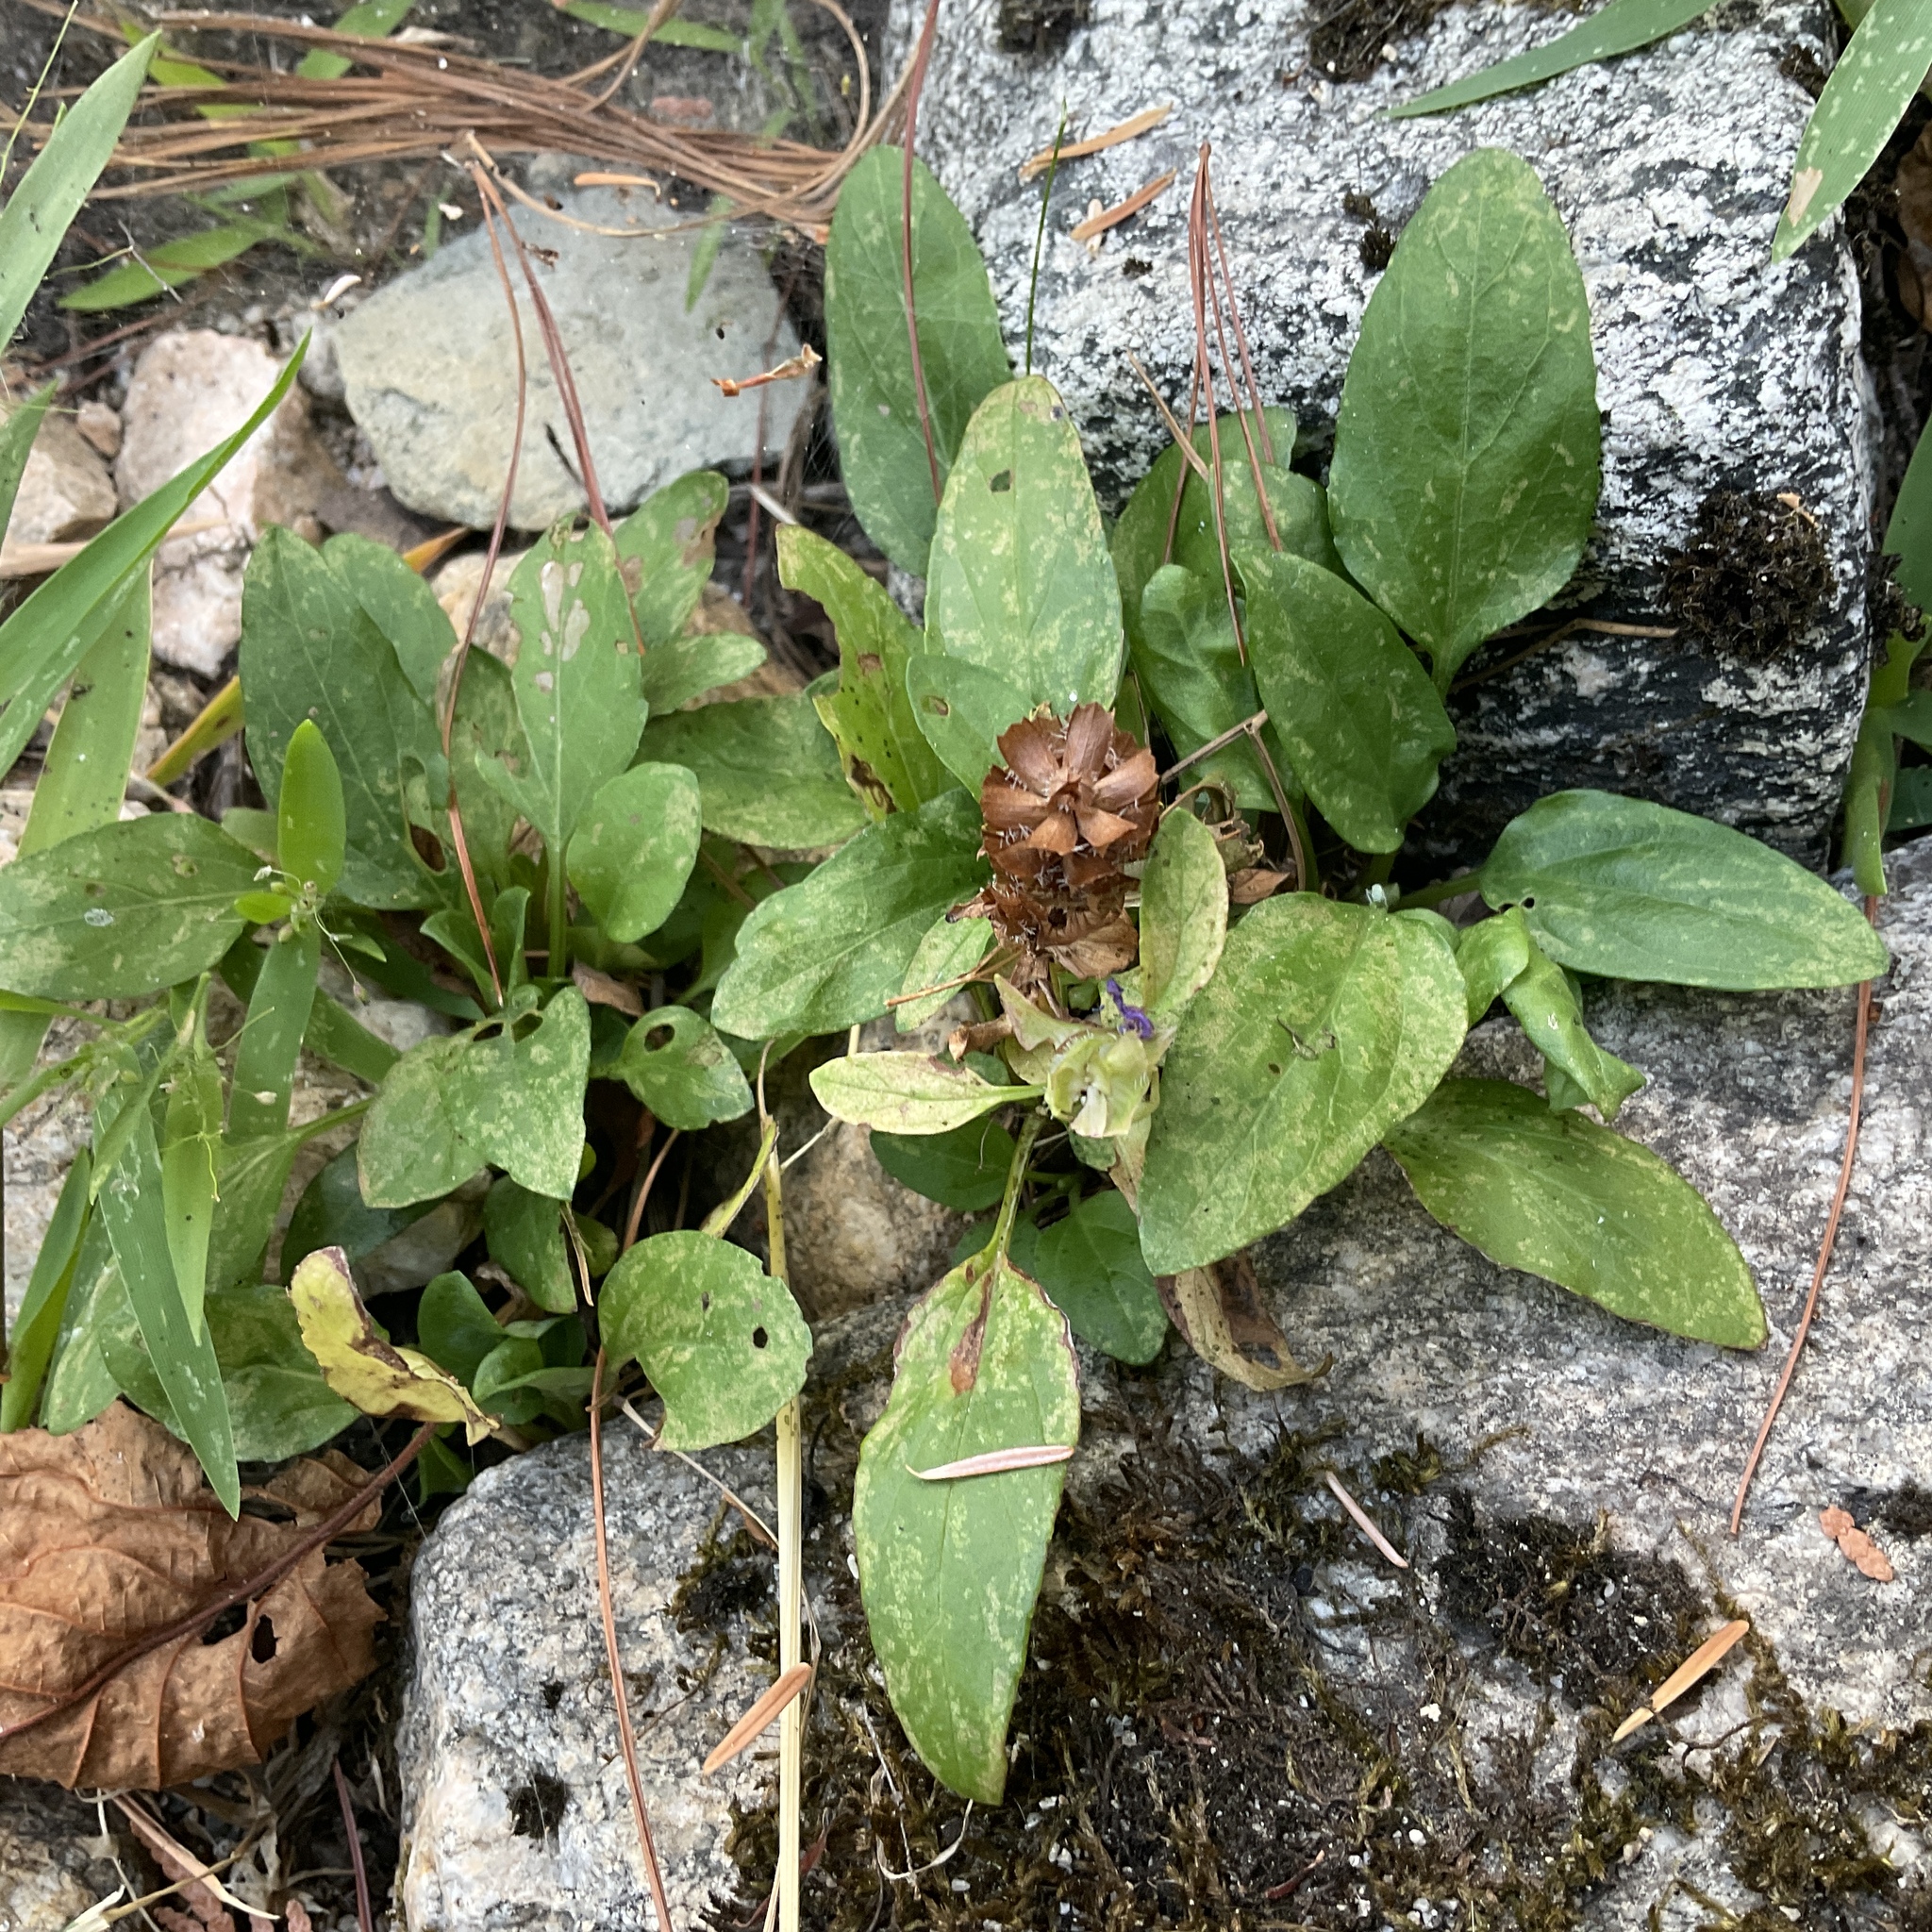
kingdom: Plantae
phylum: Tracheophyta
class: Magnoliopsida
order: Lamiales
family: Lamiaceae
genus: Prunella
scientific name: Prunella vulgaris
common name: Heal-all
